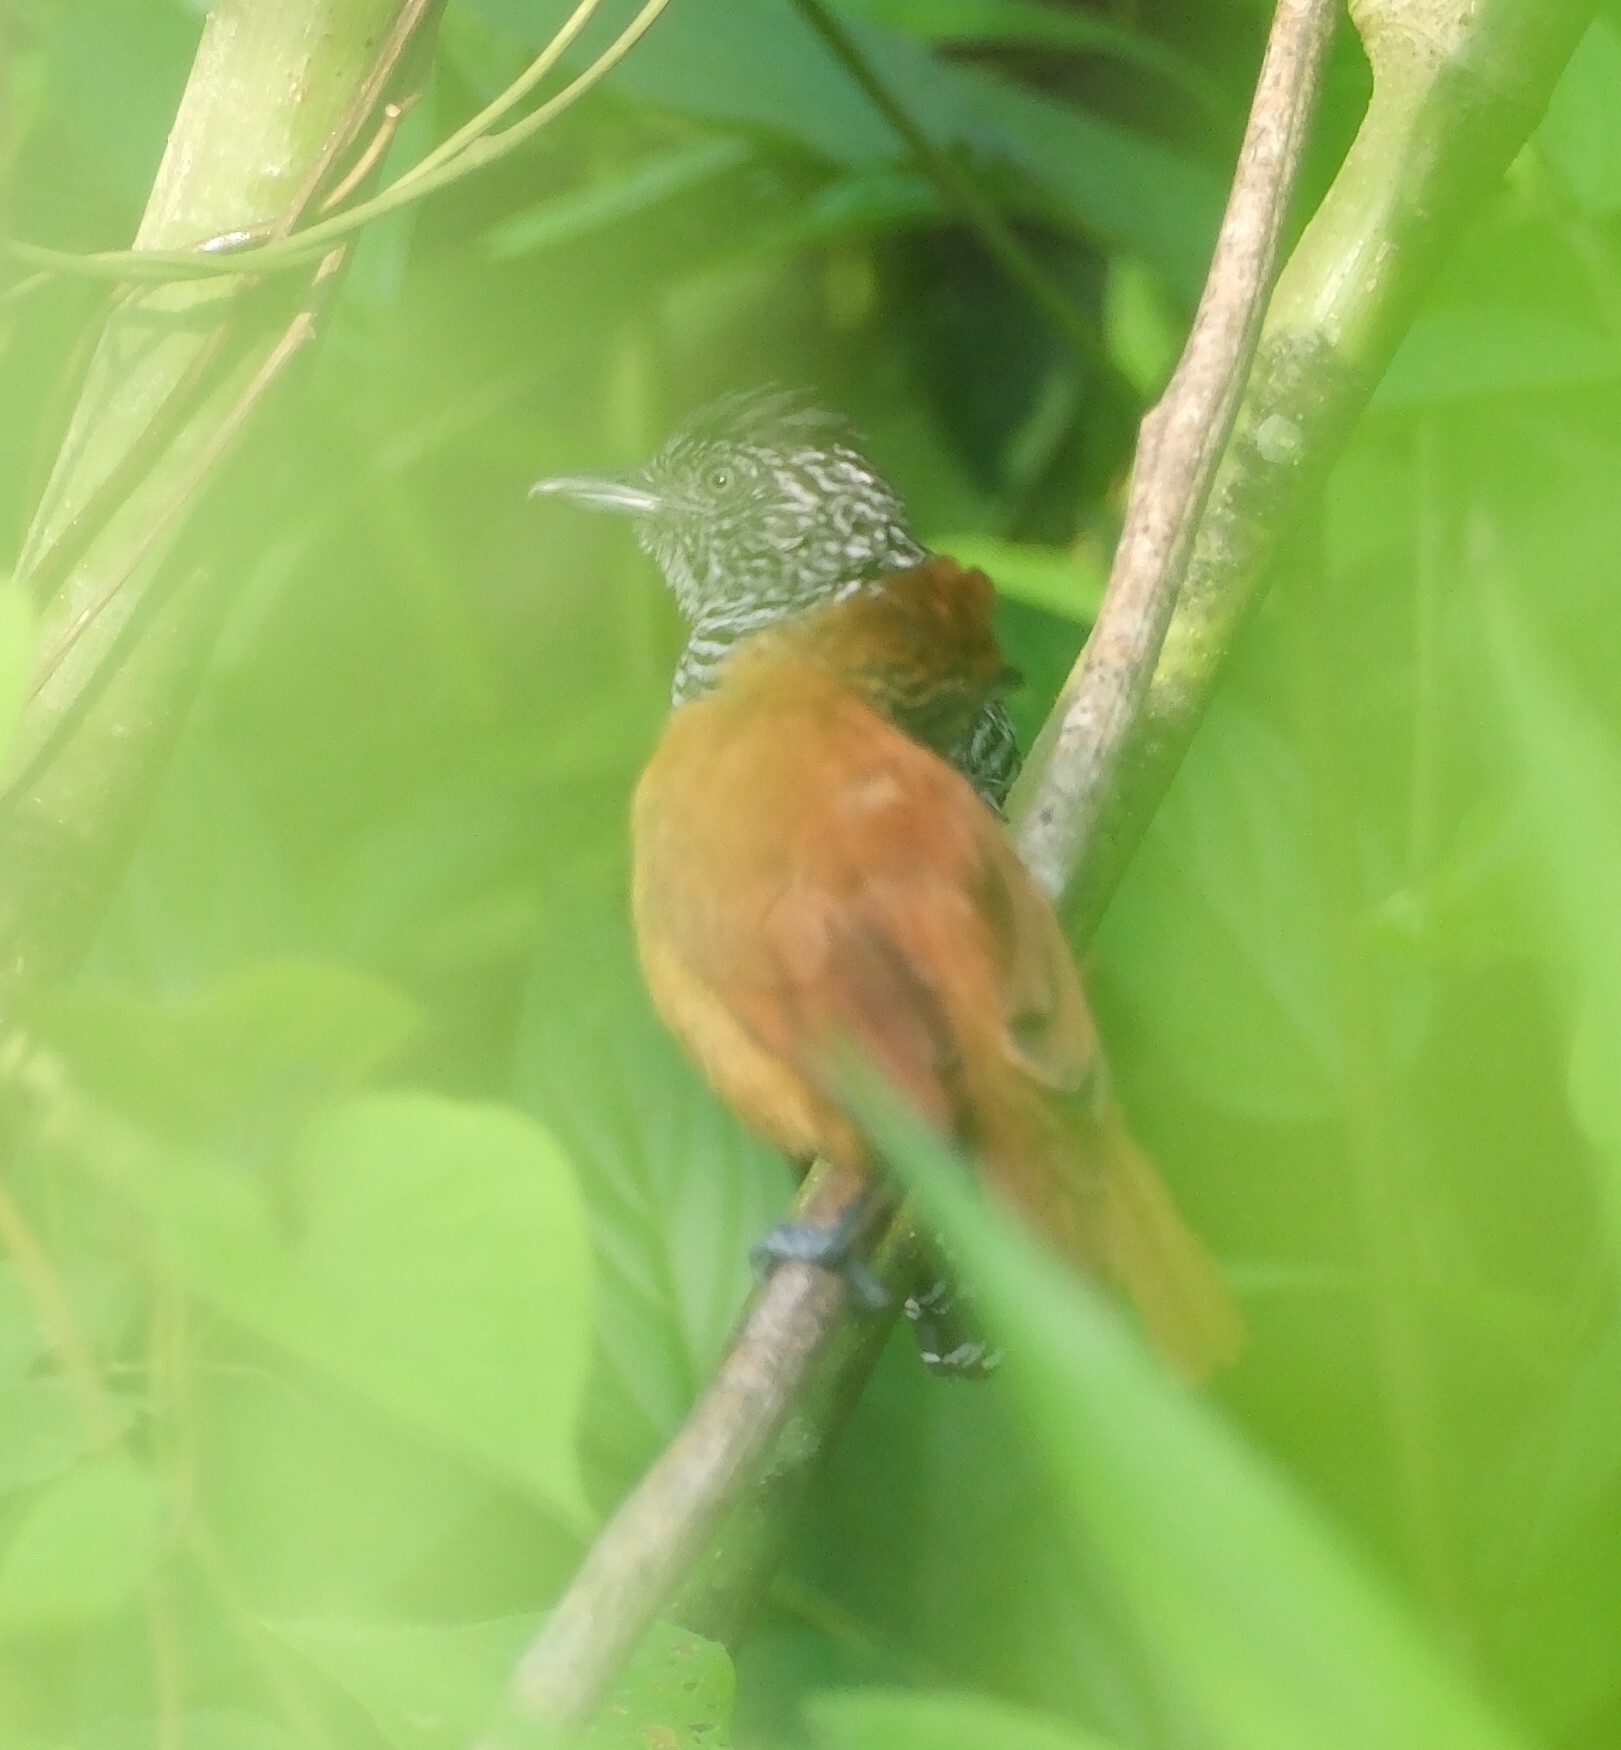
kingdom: Animalia
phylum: Chordata
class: Aves
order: Passeriformes
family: Thamnophilidae
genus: Thamnophilus
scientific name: Thamnophilus doliatus
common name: Barred antshrike
